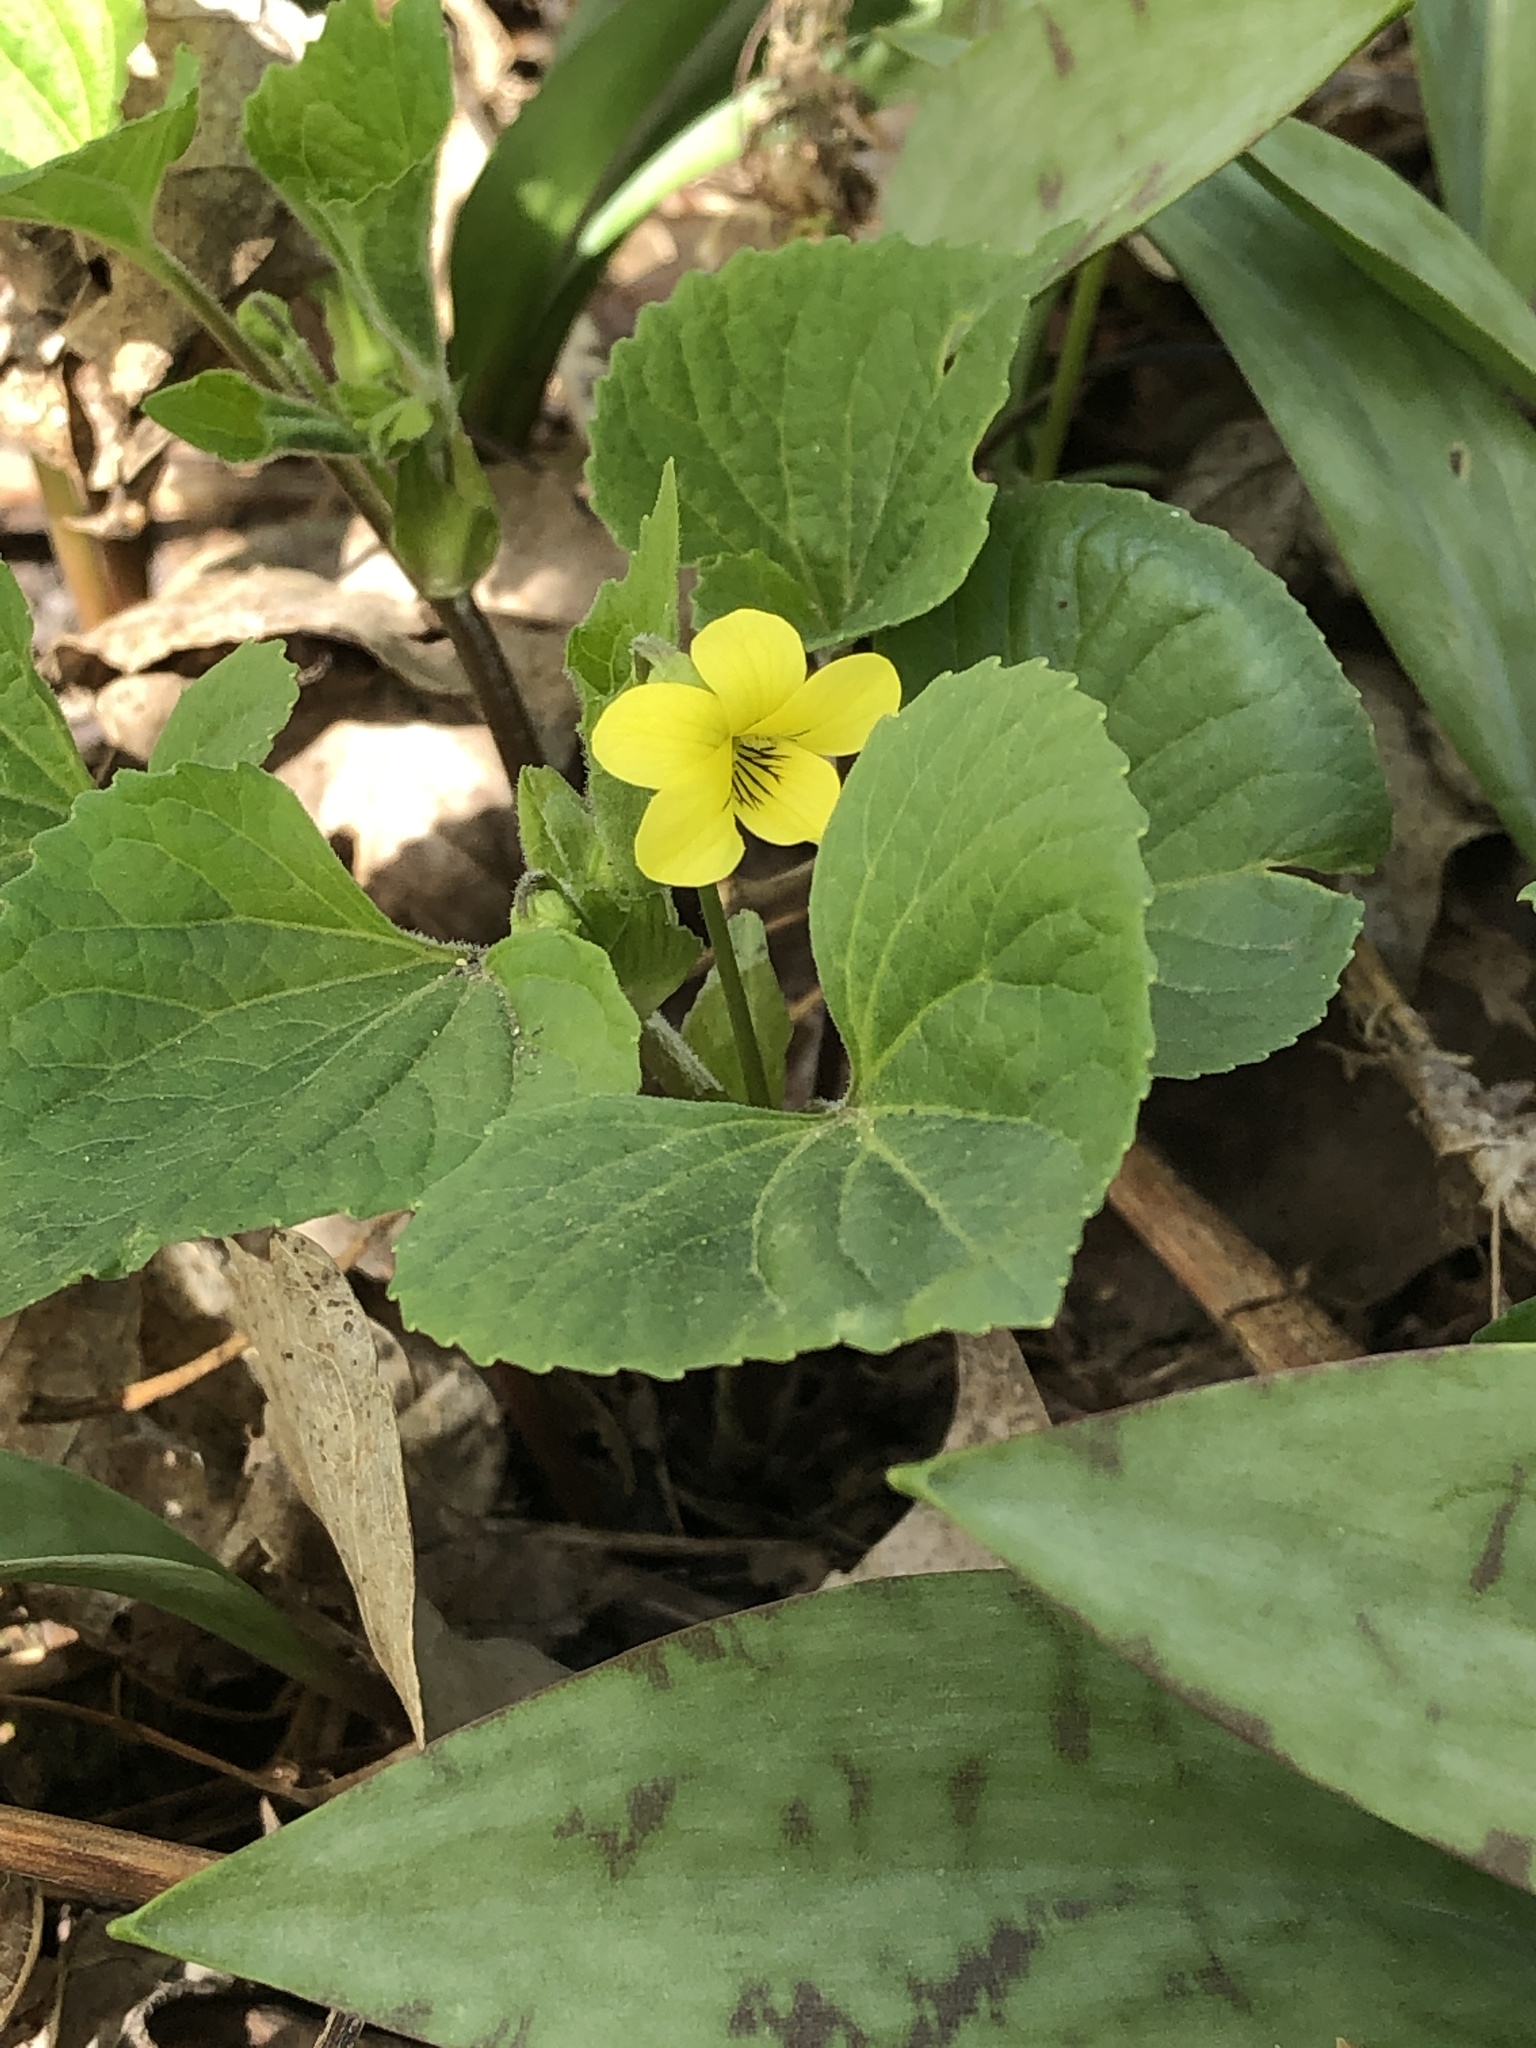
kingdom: Plantae
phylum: Tracheophyta
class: Magnoliopsida
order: Malpighiales
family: Violaceae
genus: Viola
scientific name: Viola eriocarpa
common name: Smooth yellow violet
